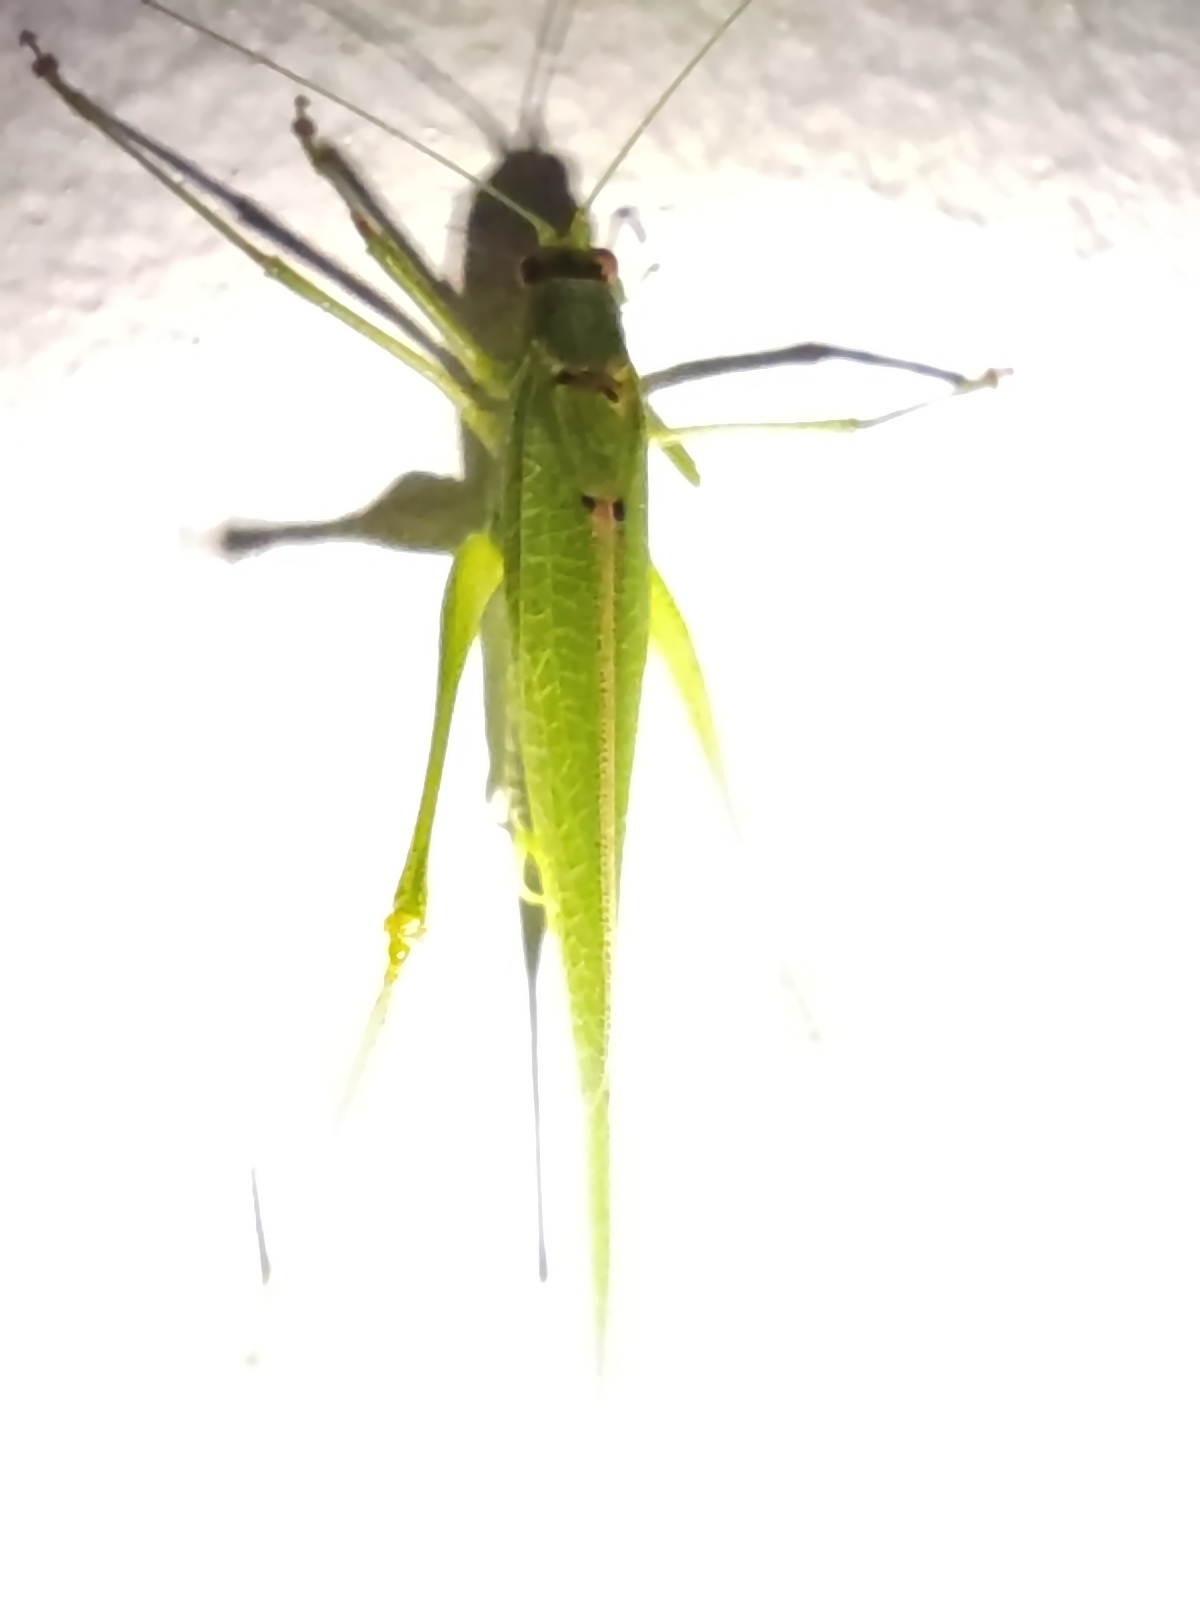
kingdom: Animalia
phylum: Arthropoda
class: Insecta
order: Orthoptera
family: Tettigoniidae
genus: Phaneroptera
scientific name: Phaneroptera nana
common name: Southern sickle bush-cricket
